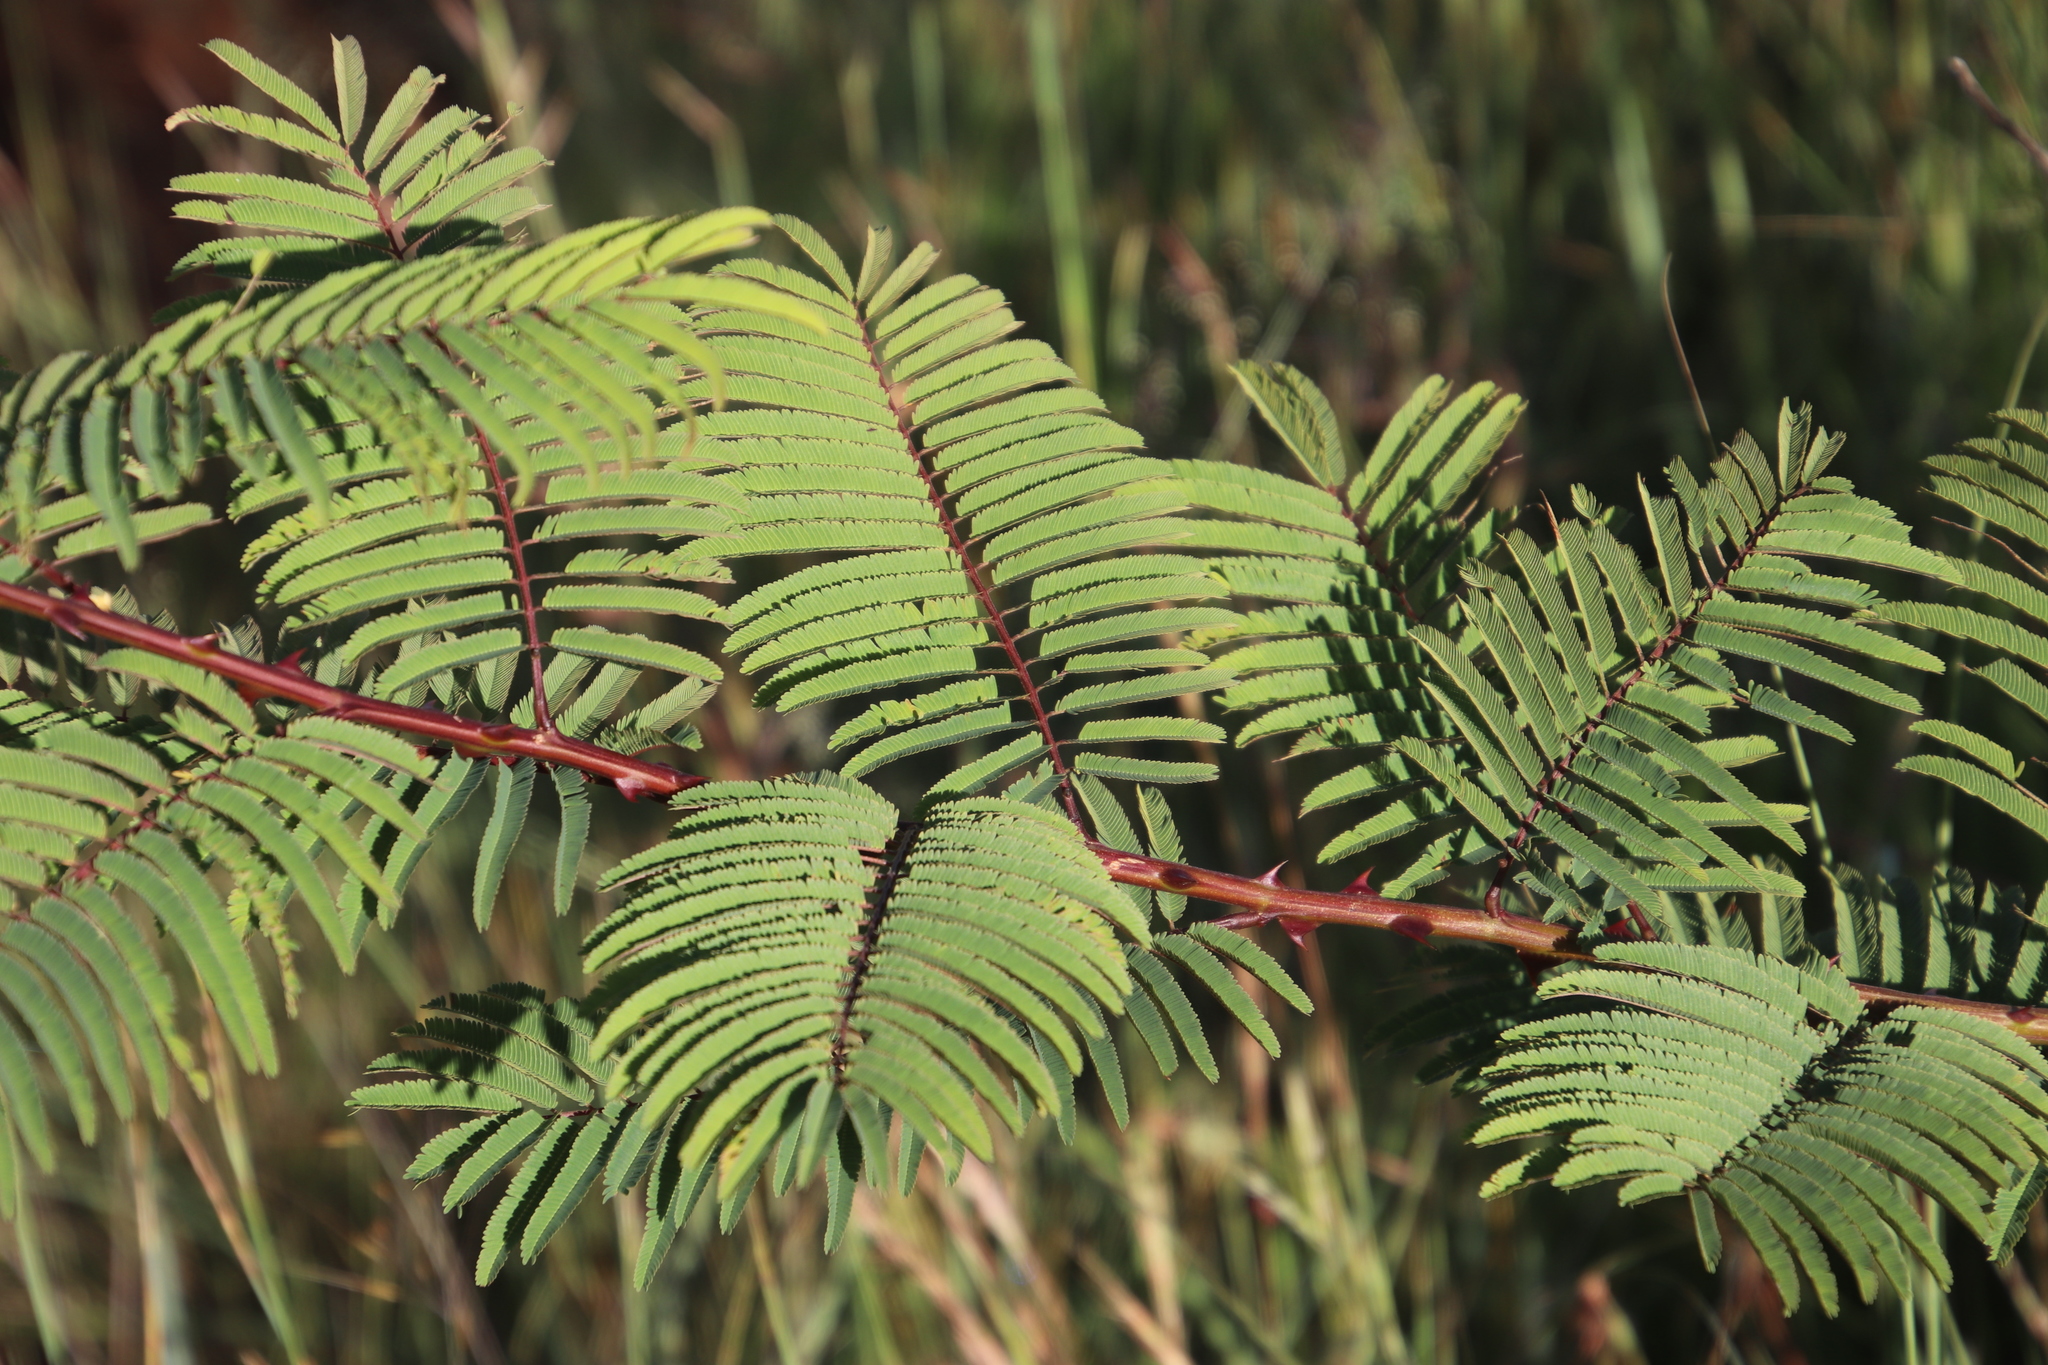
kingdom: Plantae
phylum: Tracheophyta
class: Magnoliopsida
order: Fabales
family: Fabaceae
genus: Senegalia
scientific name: Senegalia ataxacantha
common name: Flame acacia
